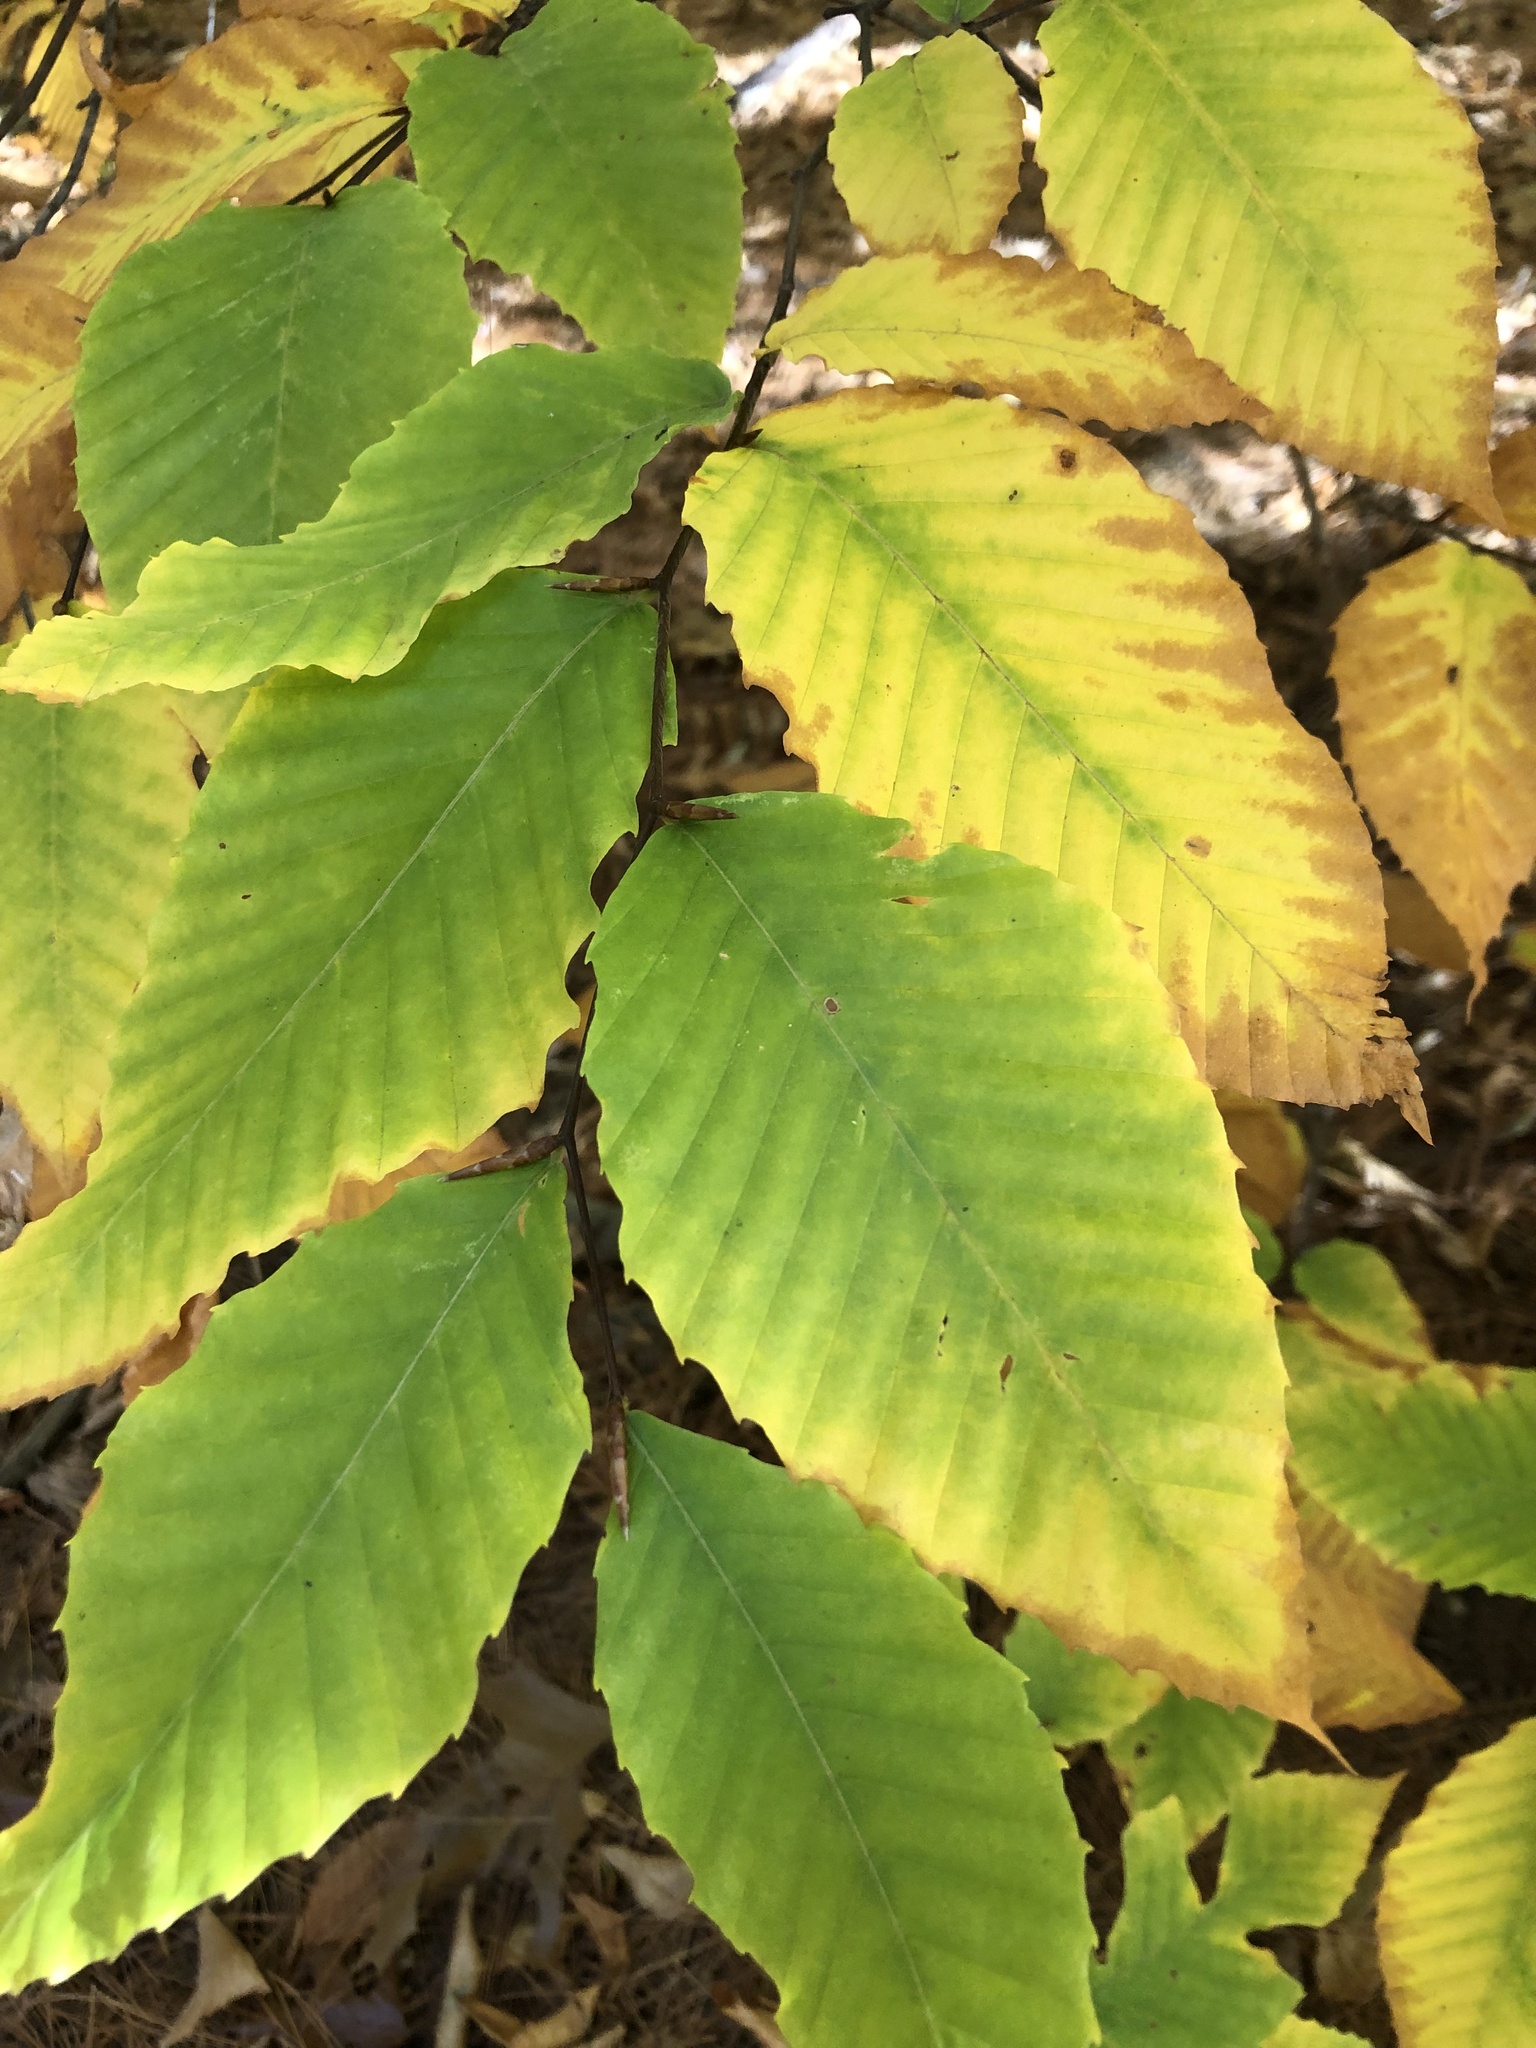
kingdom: Plantae
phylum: Tracheophyta
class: Magnoliopsida
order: Fagales
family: Fagaceae
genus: Fagus
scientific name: Fagus grandifolia
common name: American beech
